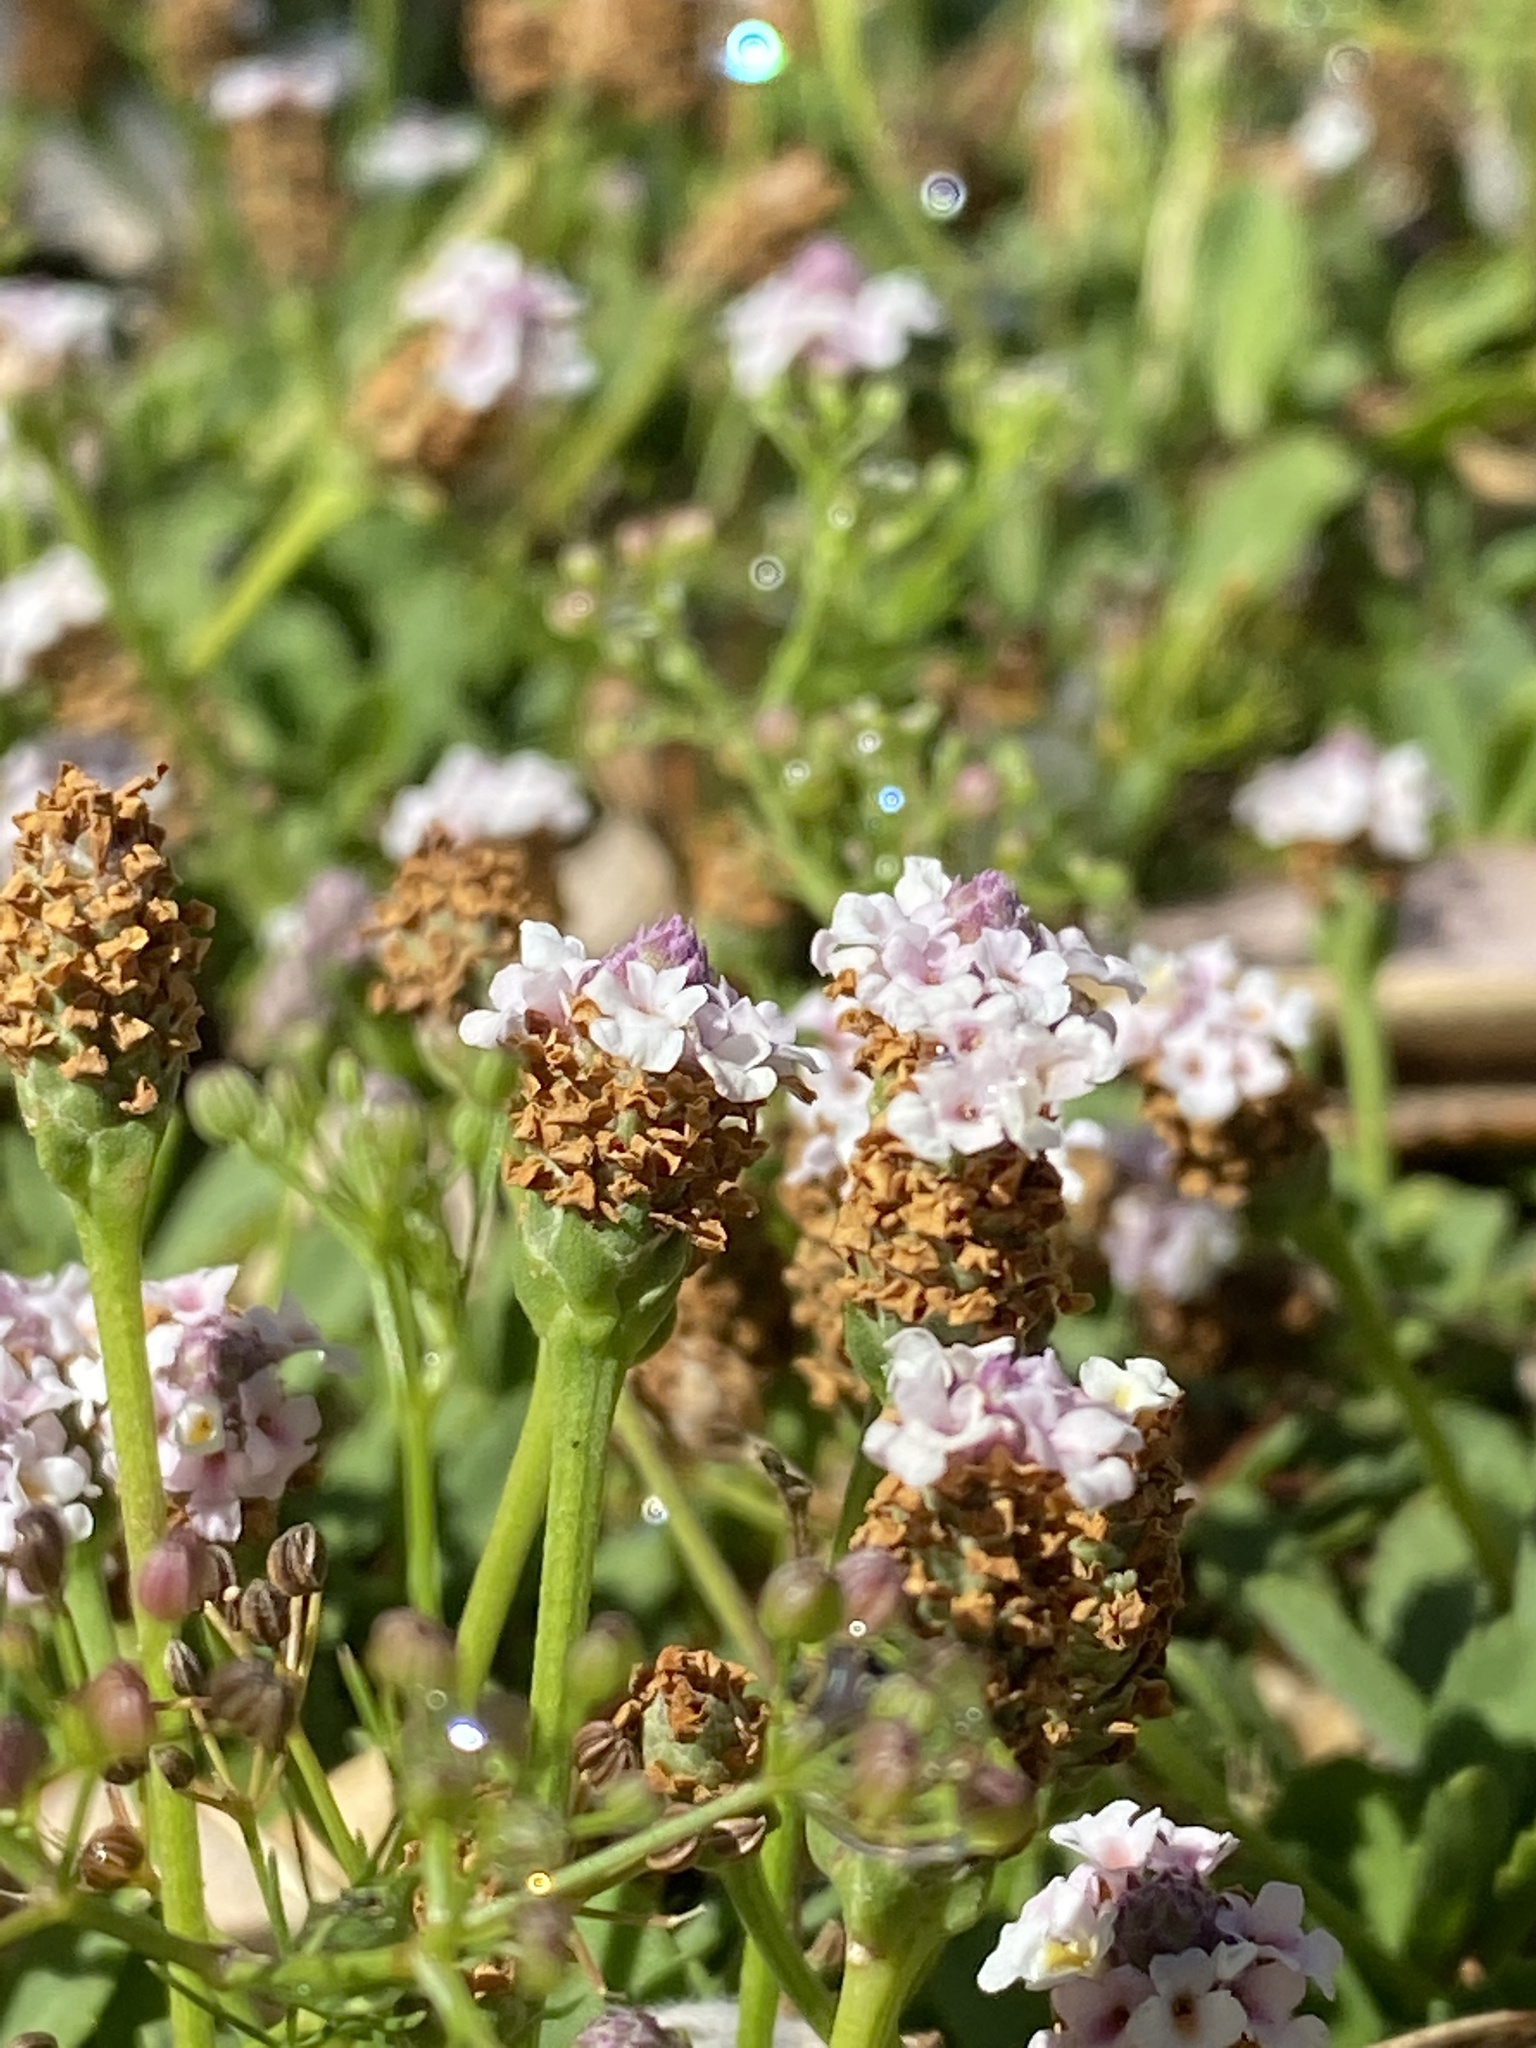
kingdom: Plantae
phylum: Tracheophyta
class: Magnoliopsida
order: Lamiales
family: Verbenaceae
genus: Phyla
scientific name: Phyla nodiflora
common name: Frogfruit
